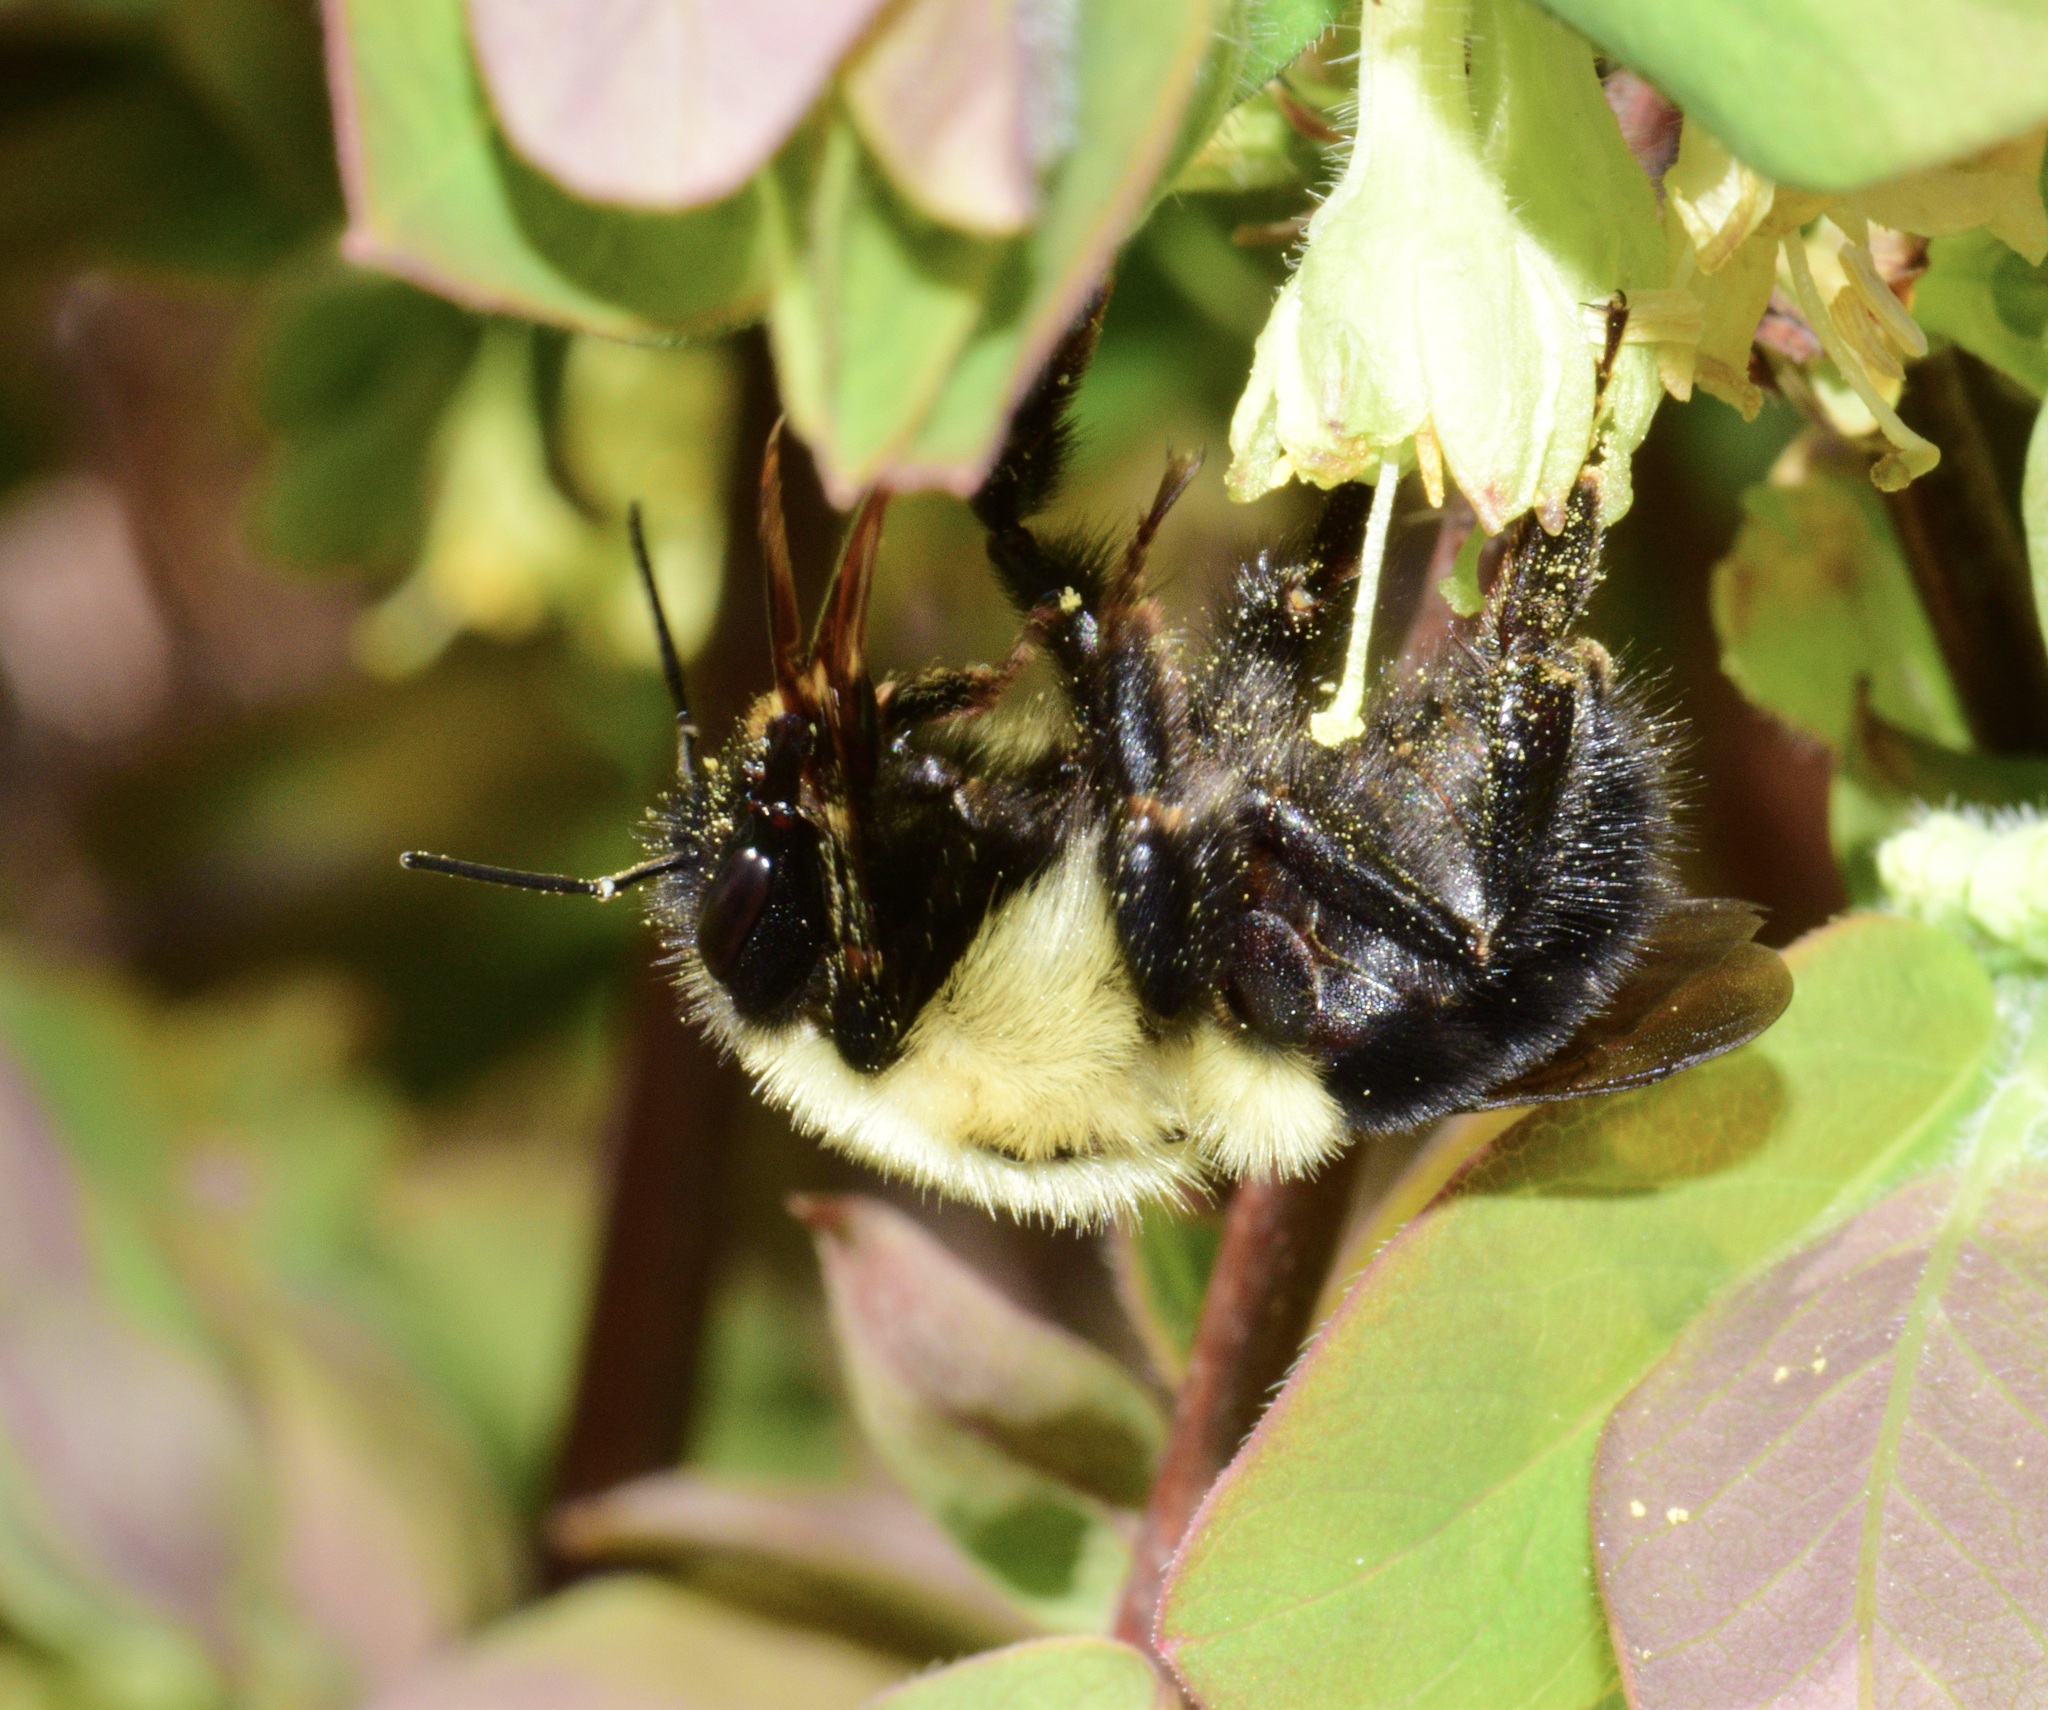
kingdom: Animalia
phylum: Arthropoda
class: Insecta
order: Hymenoptera
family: Apidae
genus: Bombus
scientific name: Bombus impatiens
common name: Common eastern bumble bee
